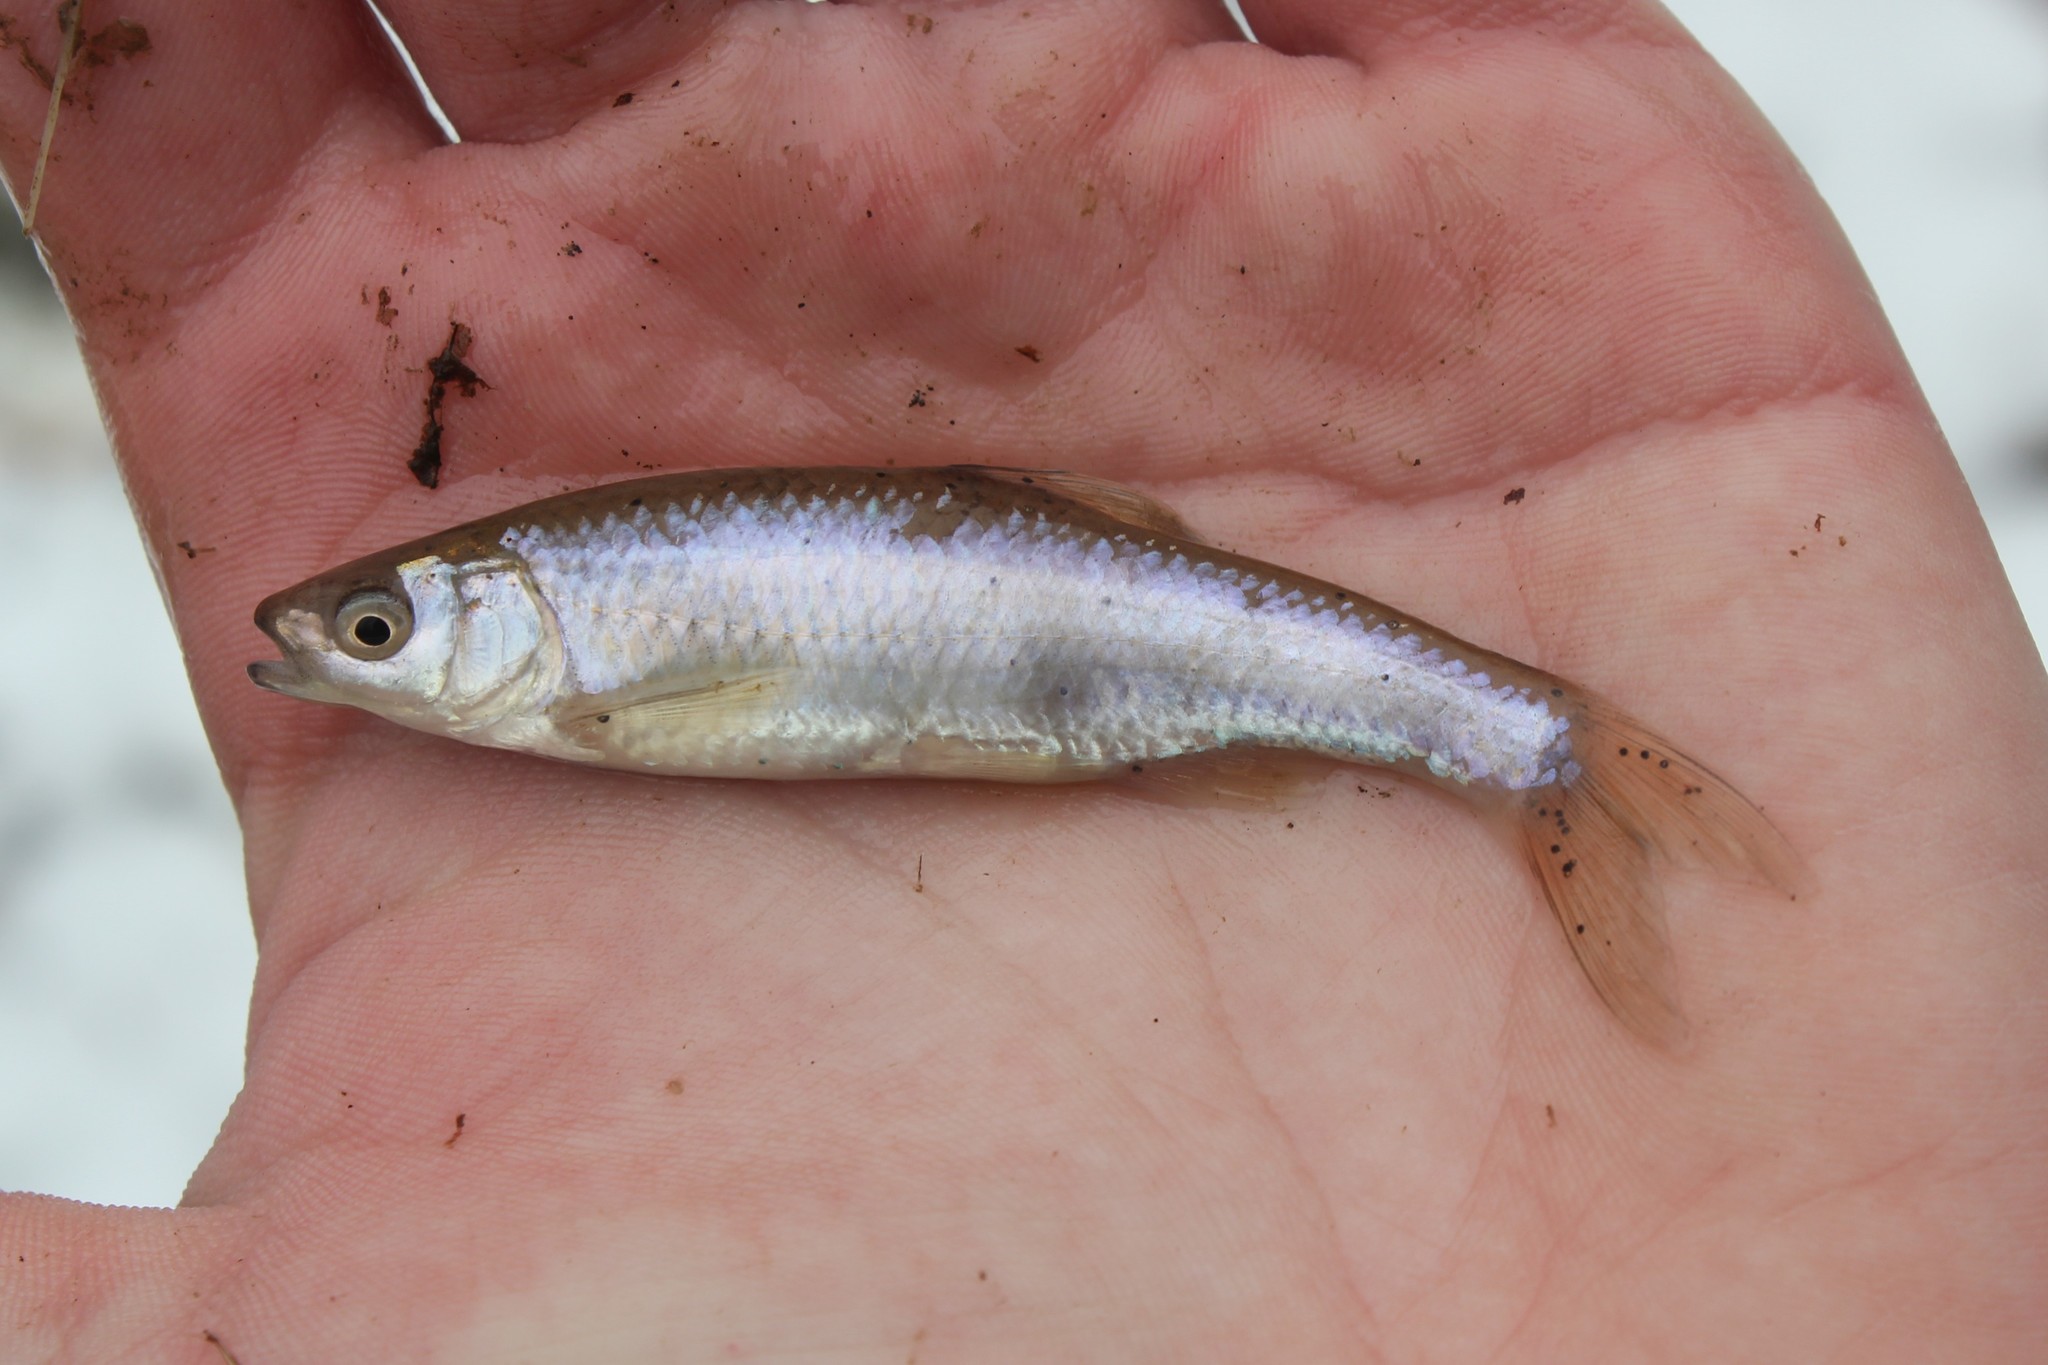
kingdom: Animalia
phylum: Chordata
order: Cypriniformes
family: Cyprinidae
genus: Cyprinella
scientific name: Cyprinella spiloptera
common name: Spotfin shiner
